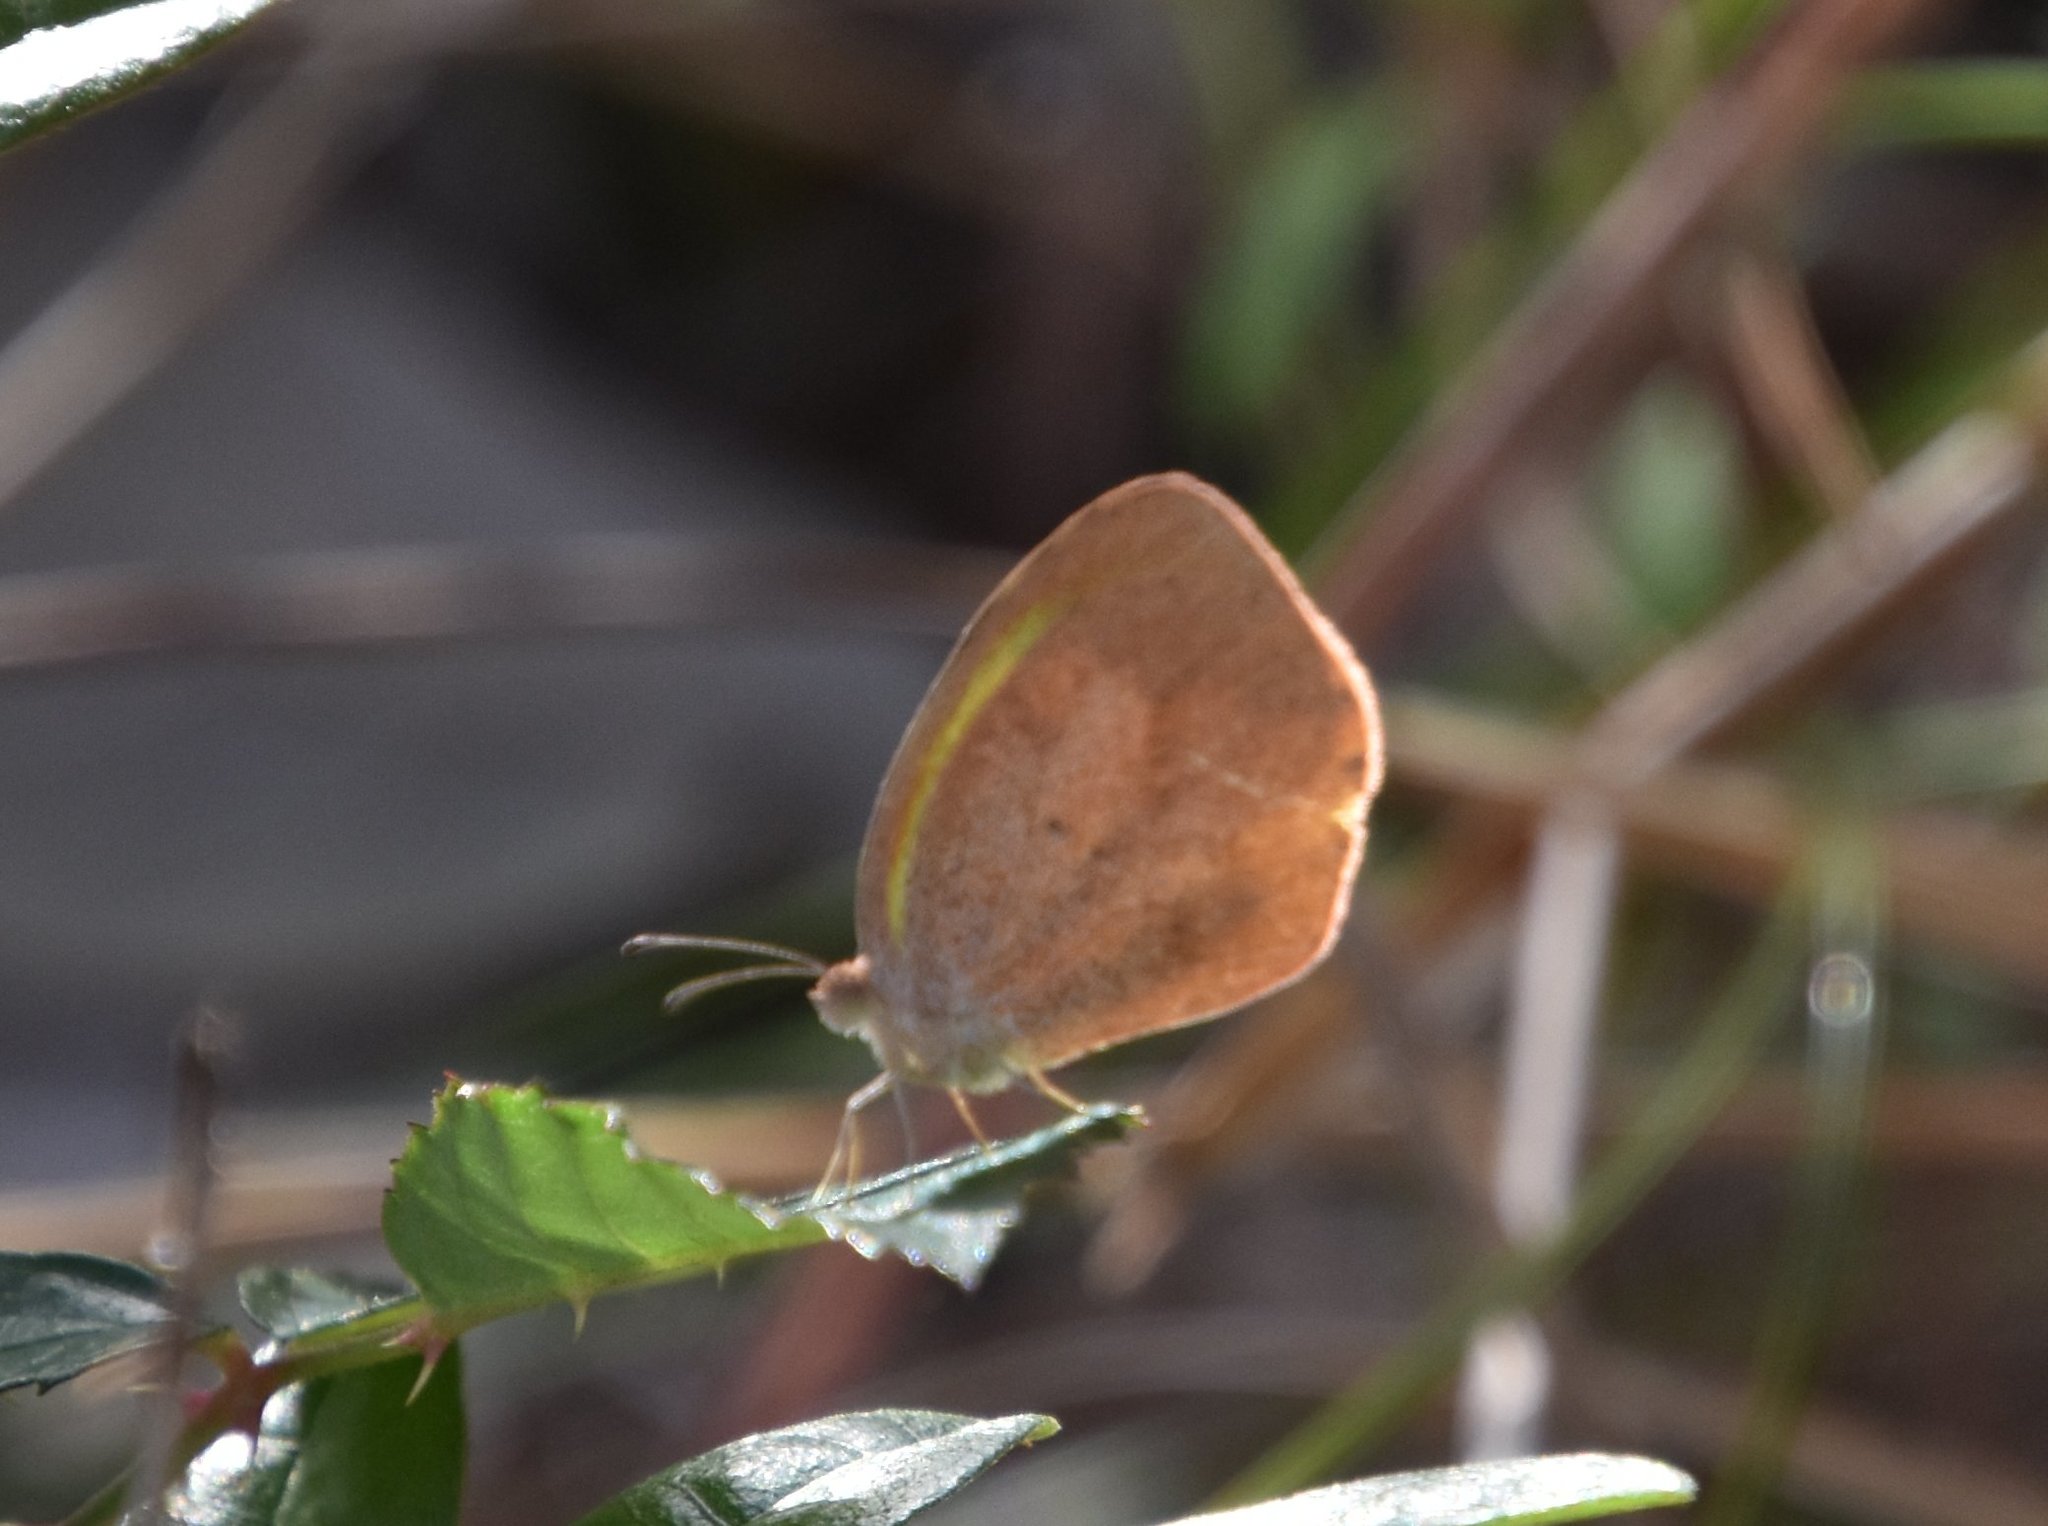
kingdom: Animalia
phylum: Arthropoda
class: Insecta
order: Lepidoptera
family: Pieridae
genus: Eurema
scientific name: Eurema daira
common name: Barred sulphur
